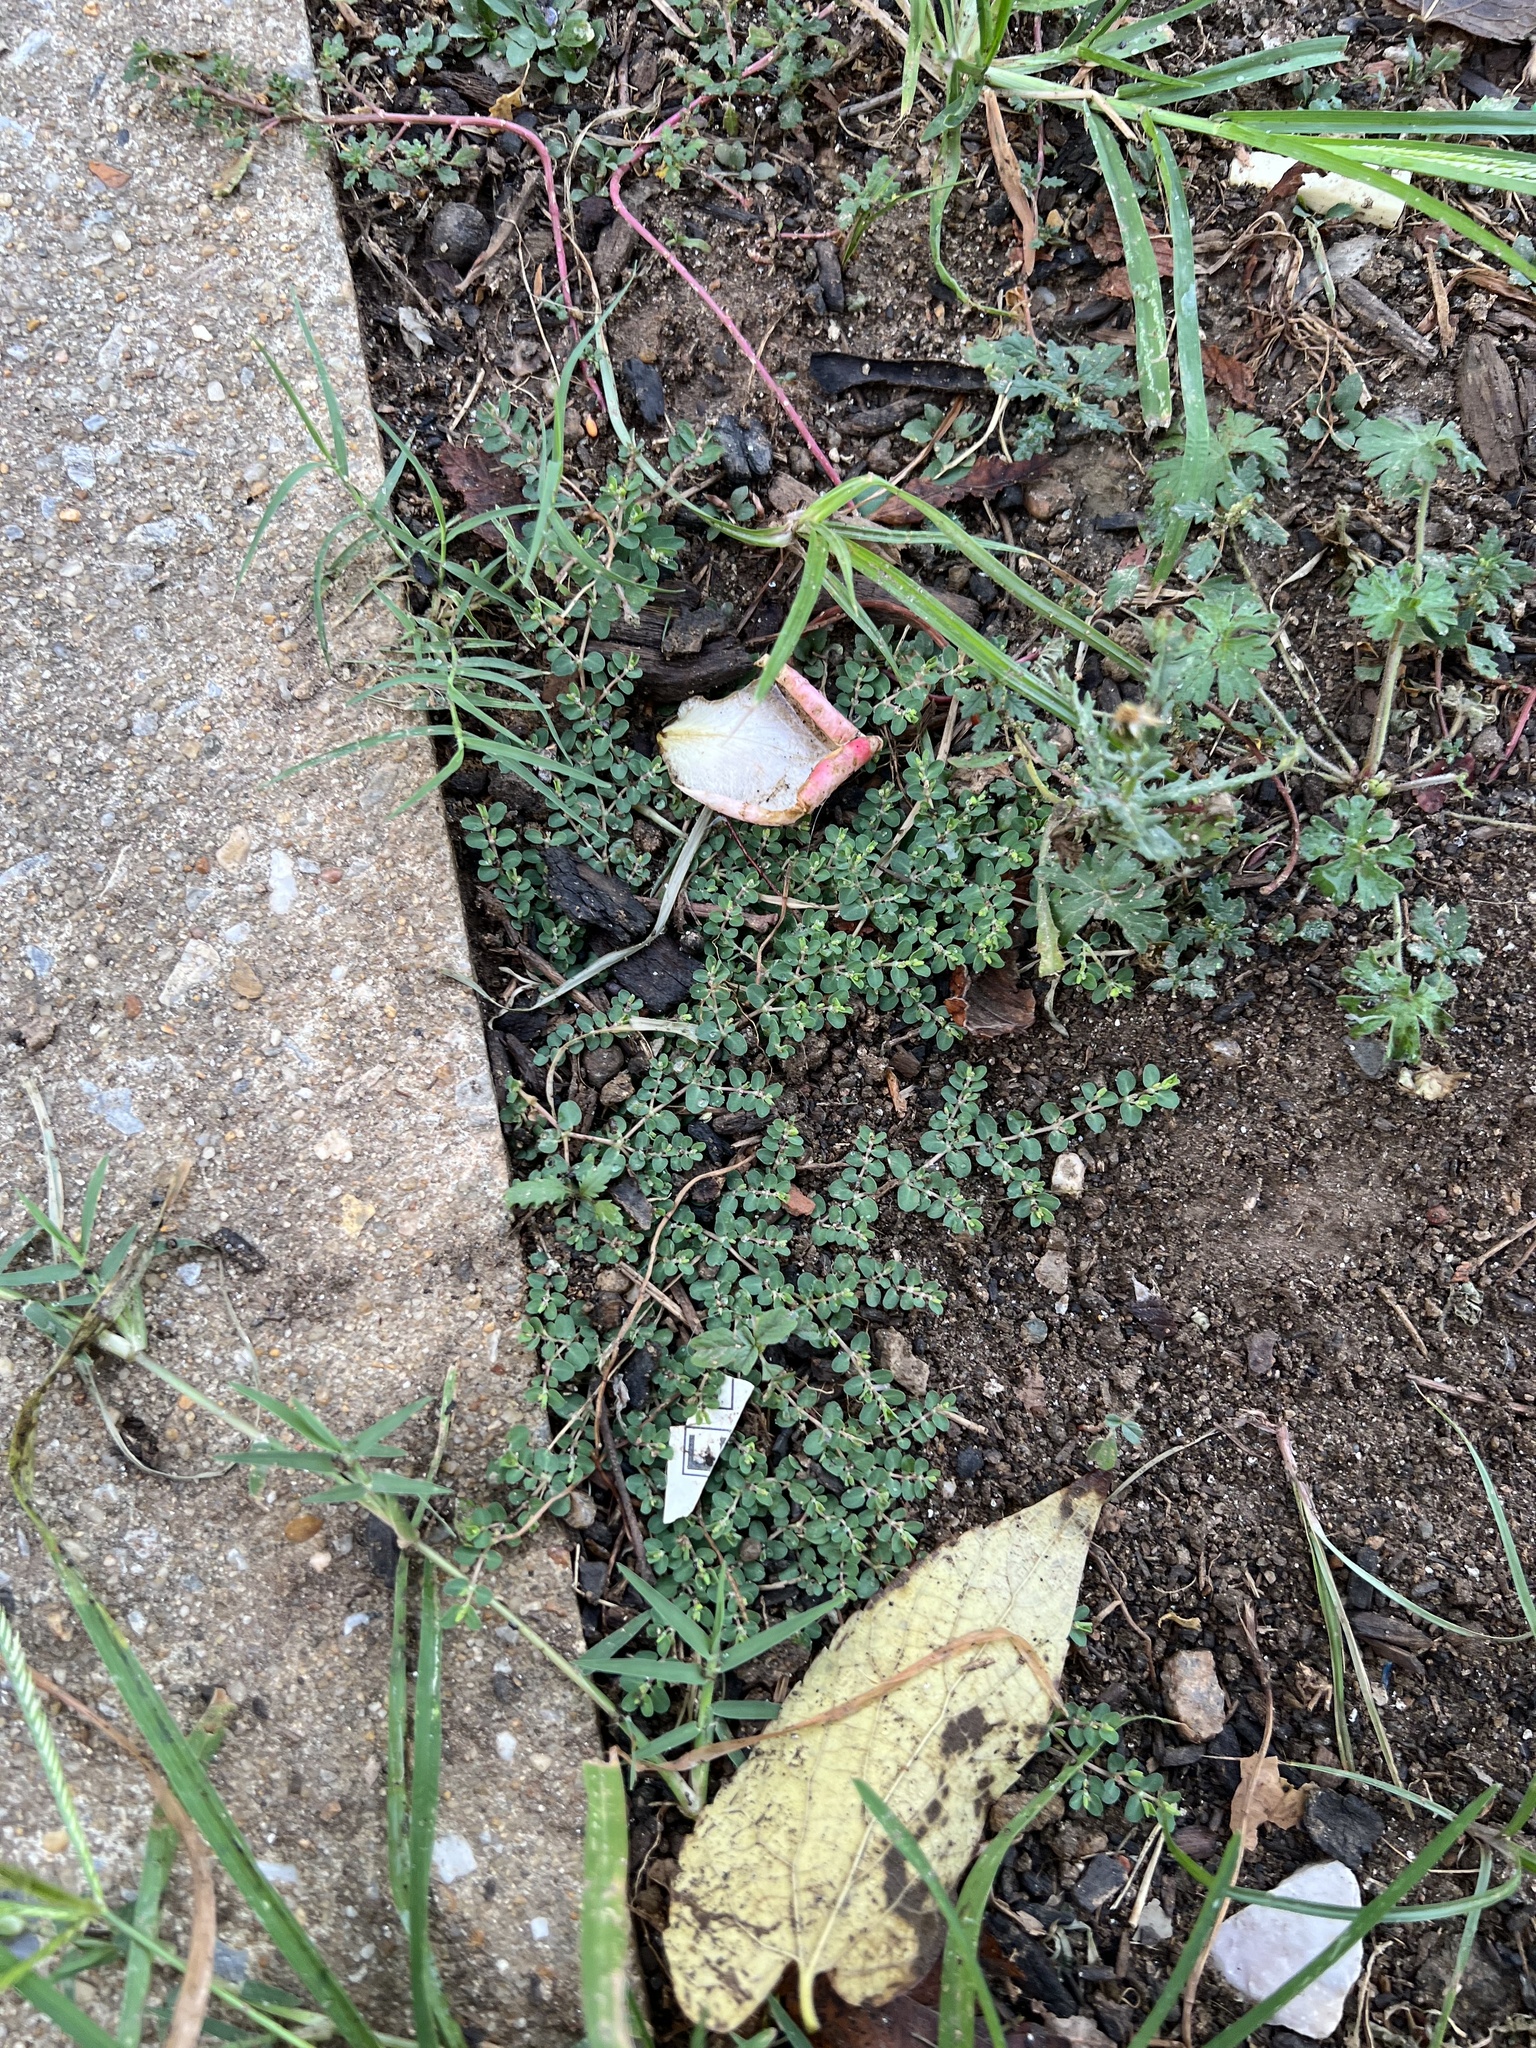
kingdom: Plantae
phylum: Tracheophyta
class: Magnoliopsida
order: Malpighiales
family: Euphorbiaceae
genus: Euphorbia
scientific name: Euphorbia prostrata
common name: Prostrate sandmat
